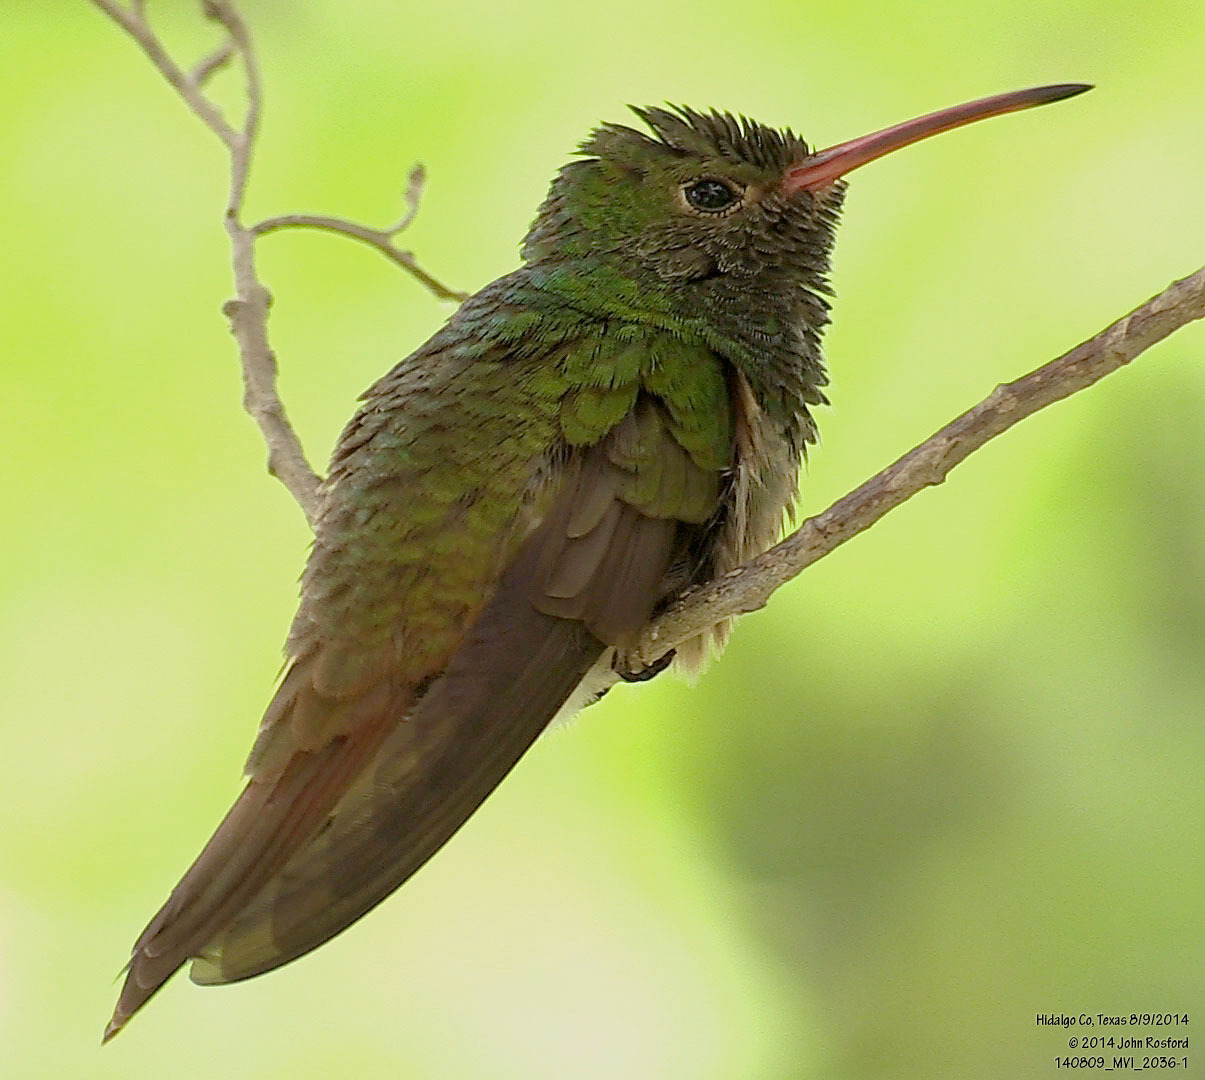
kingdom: Animalia
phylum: Chordata
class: Aves
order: Apodiformes
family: Trochilidae
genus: Amazilia
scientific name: Amazilia yucatanensis
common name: Buff-bellied hummingbird
